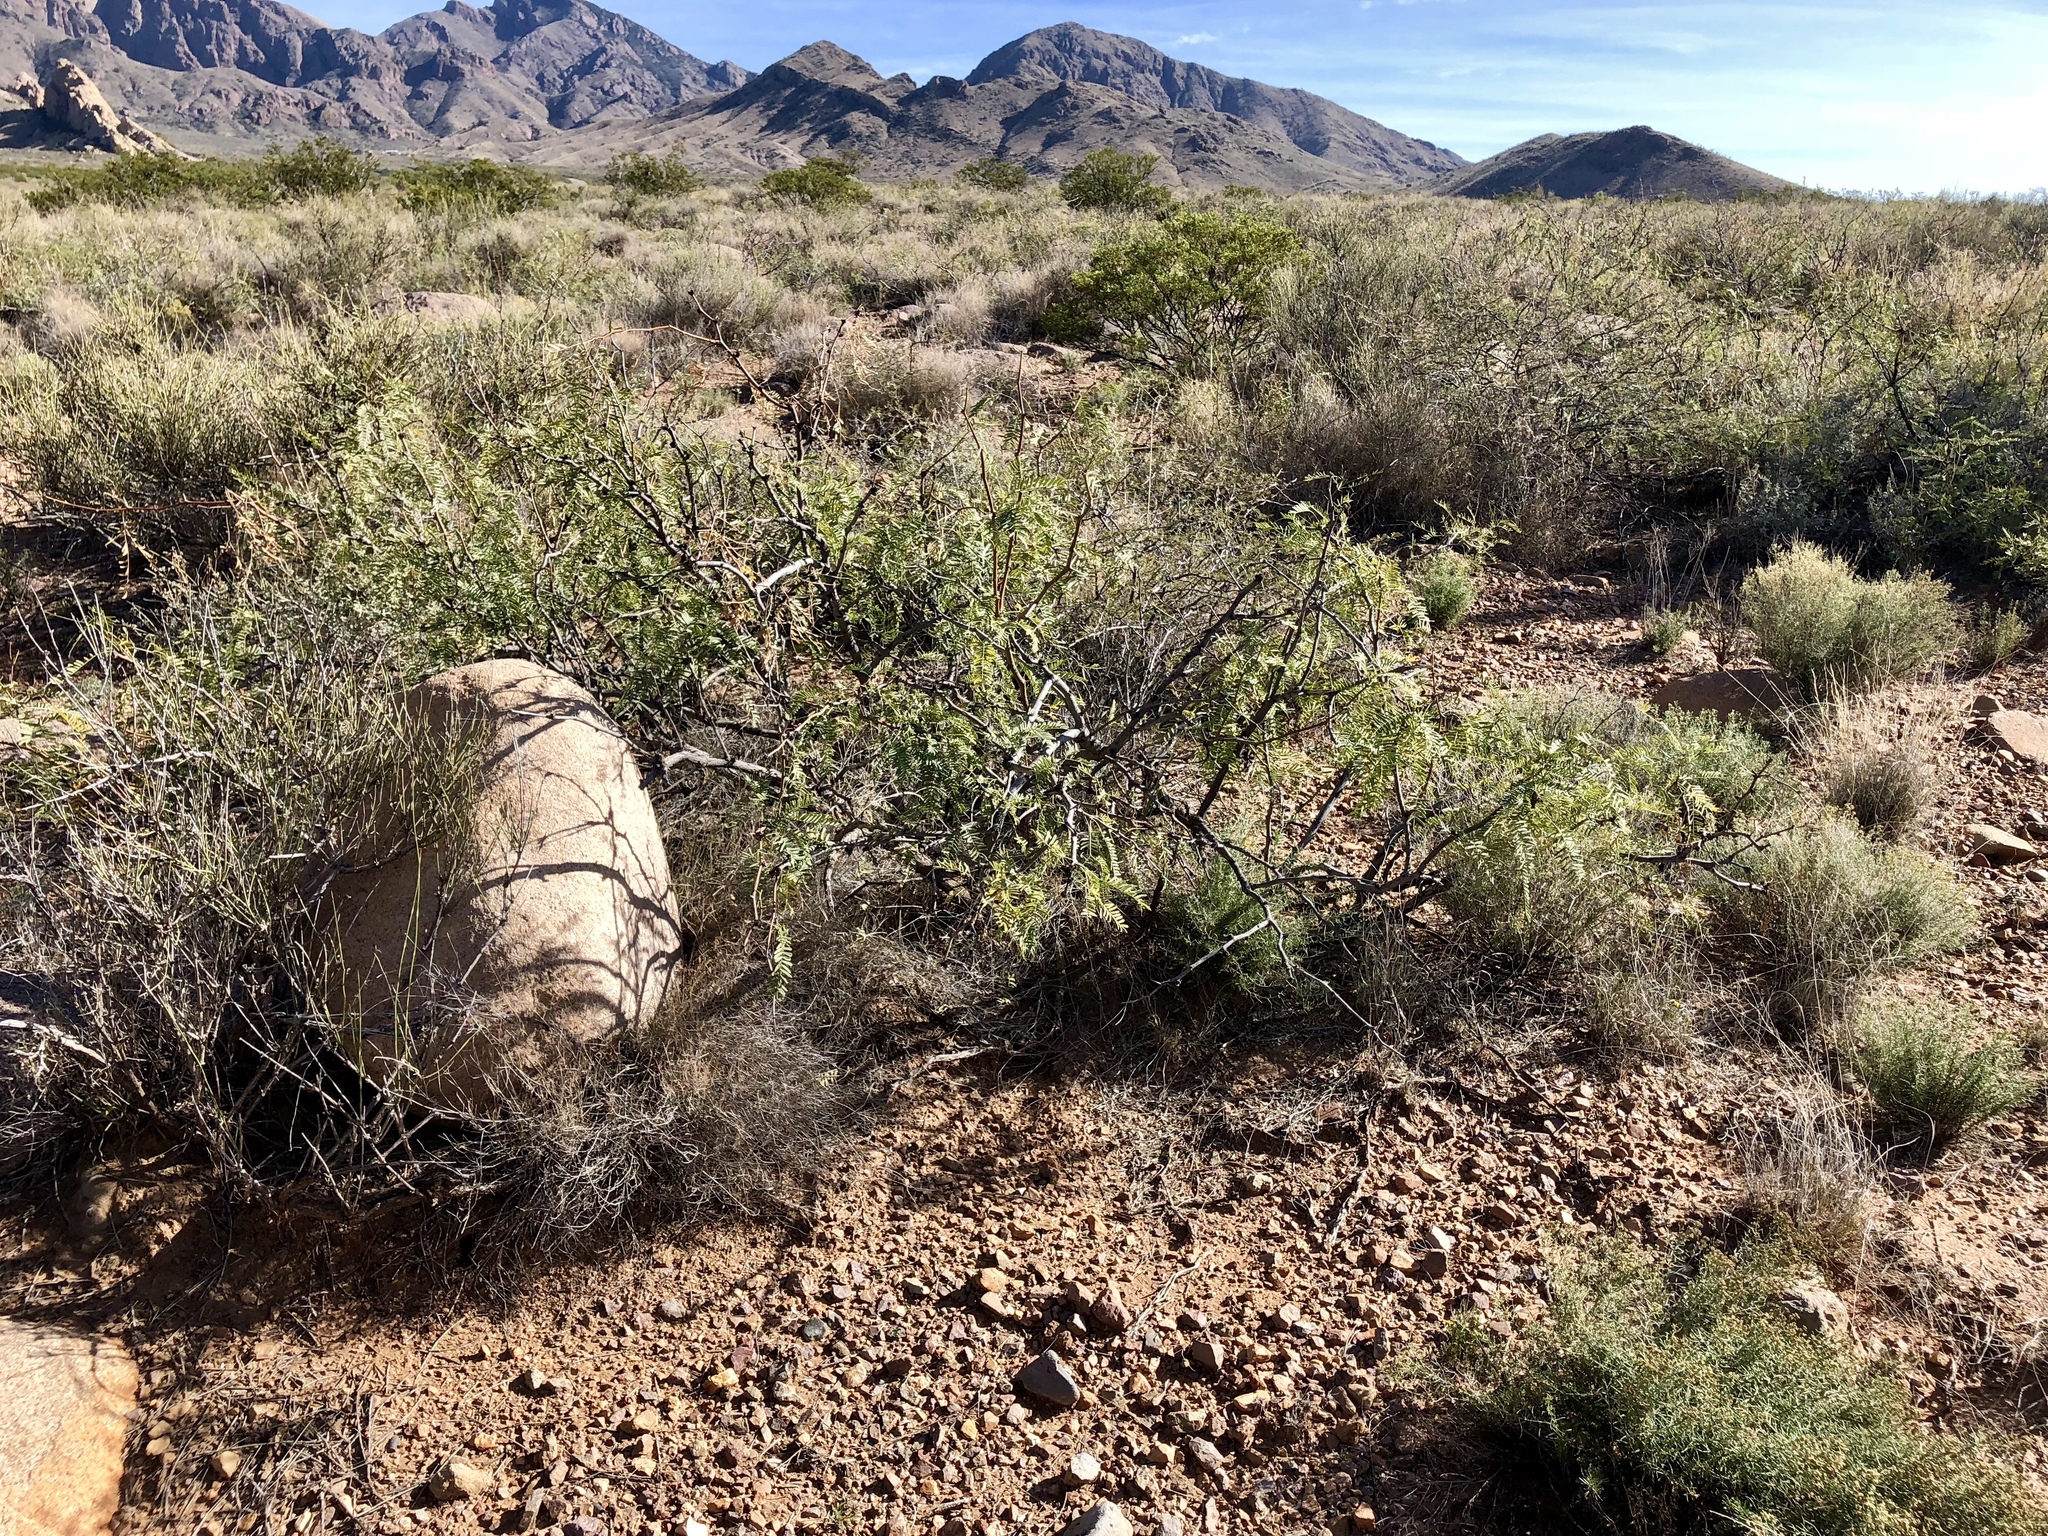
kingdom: Plantae
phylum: Tracheophyta
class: Magnoliopsida
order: Fabales
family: Fabaceae
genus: Prosopis
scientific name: Prosopis glandulosa
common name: Honey mesquite
